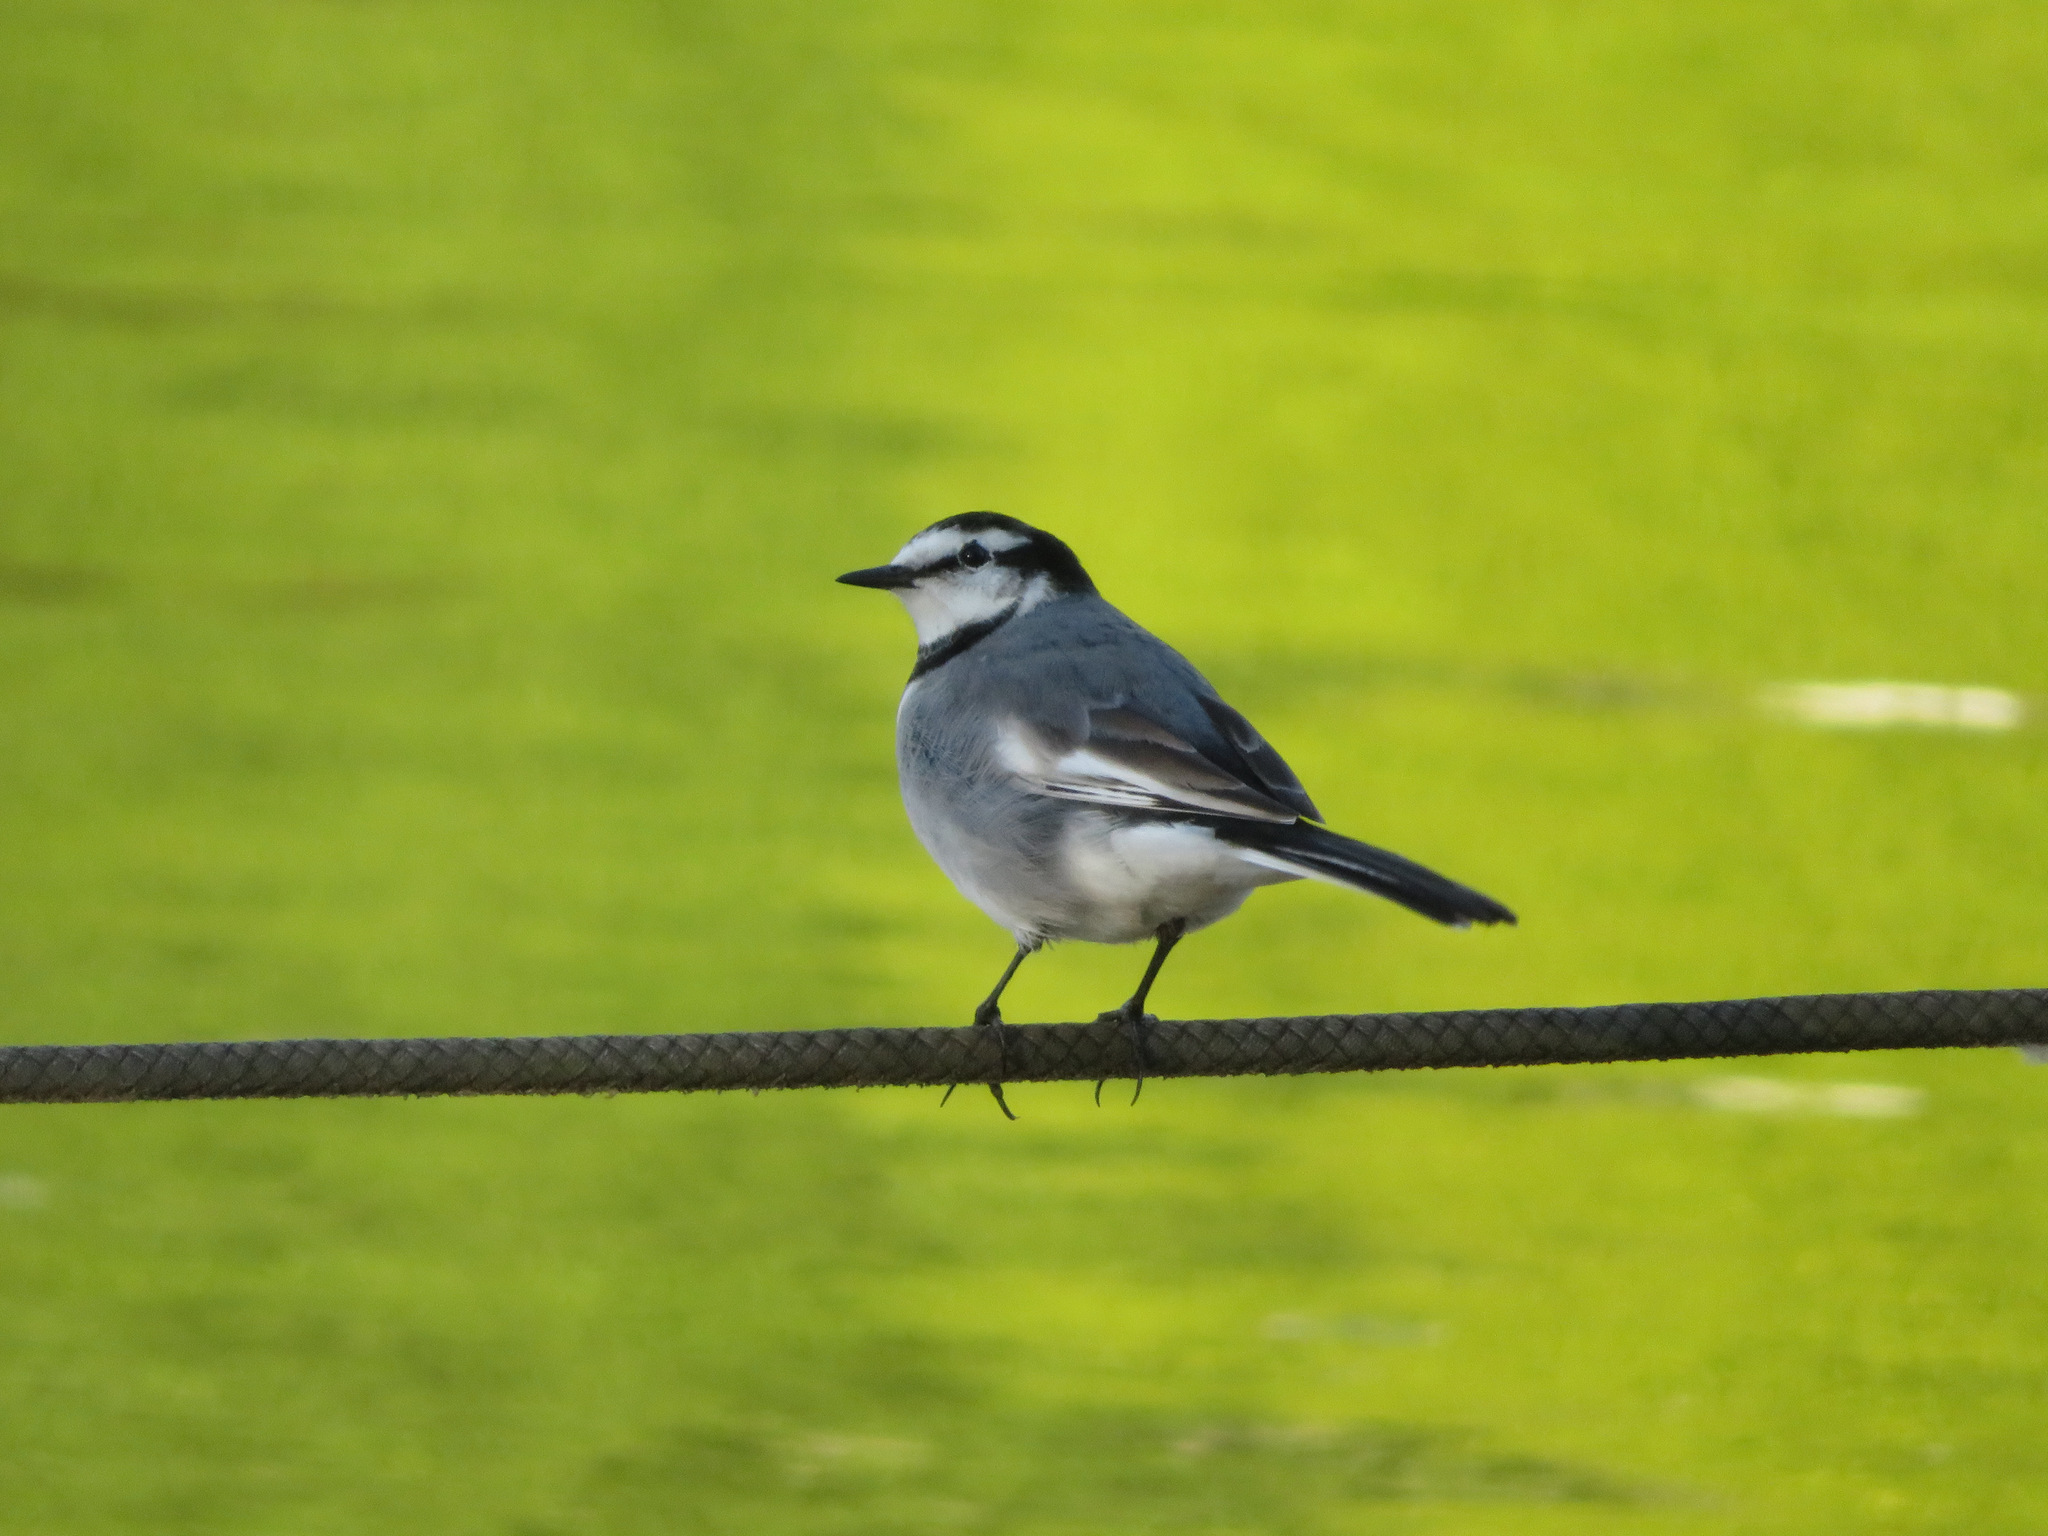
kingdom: Animalia
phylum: Chordata
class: Aves
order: Passeriformes
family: Motacillidae
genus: Motacilla
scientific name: Motacilla alba
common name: White wagtail
